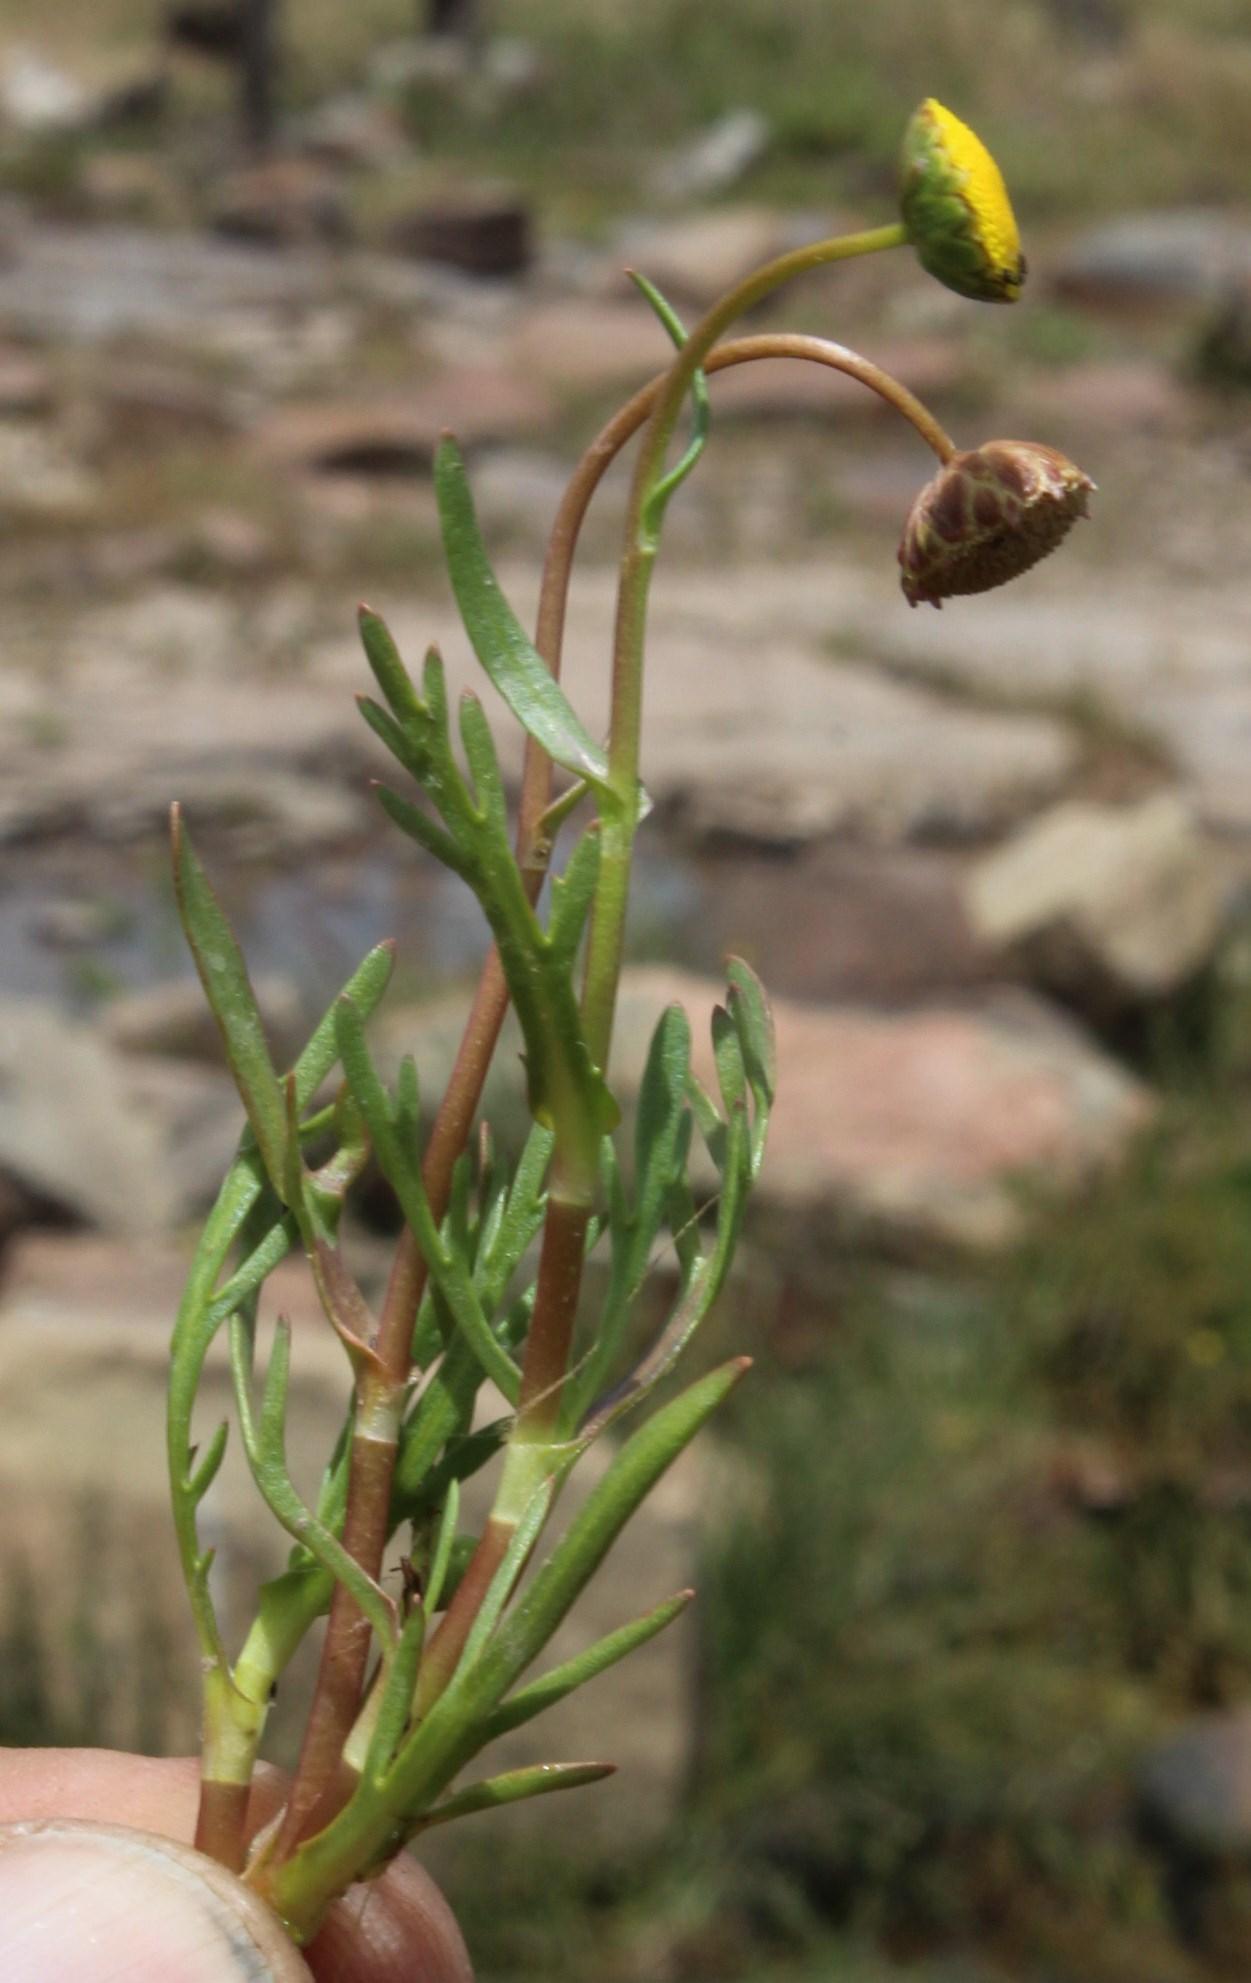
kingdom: Plantae
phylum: Tracheophyta
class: Magnoliopsida
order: Asterales
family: Asteraceae
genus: Cotula
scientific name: Cotula coronopifolia
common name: Buttonweed
